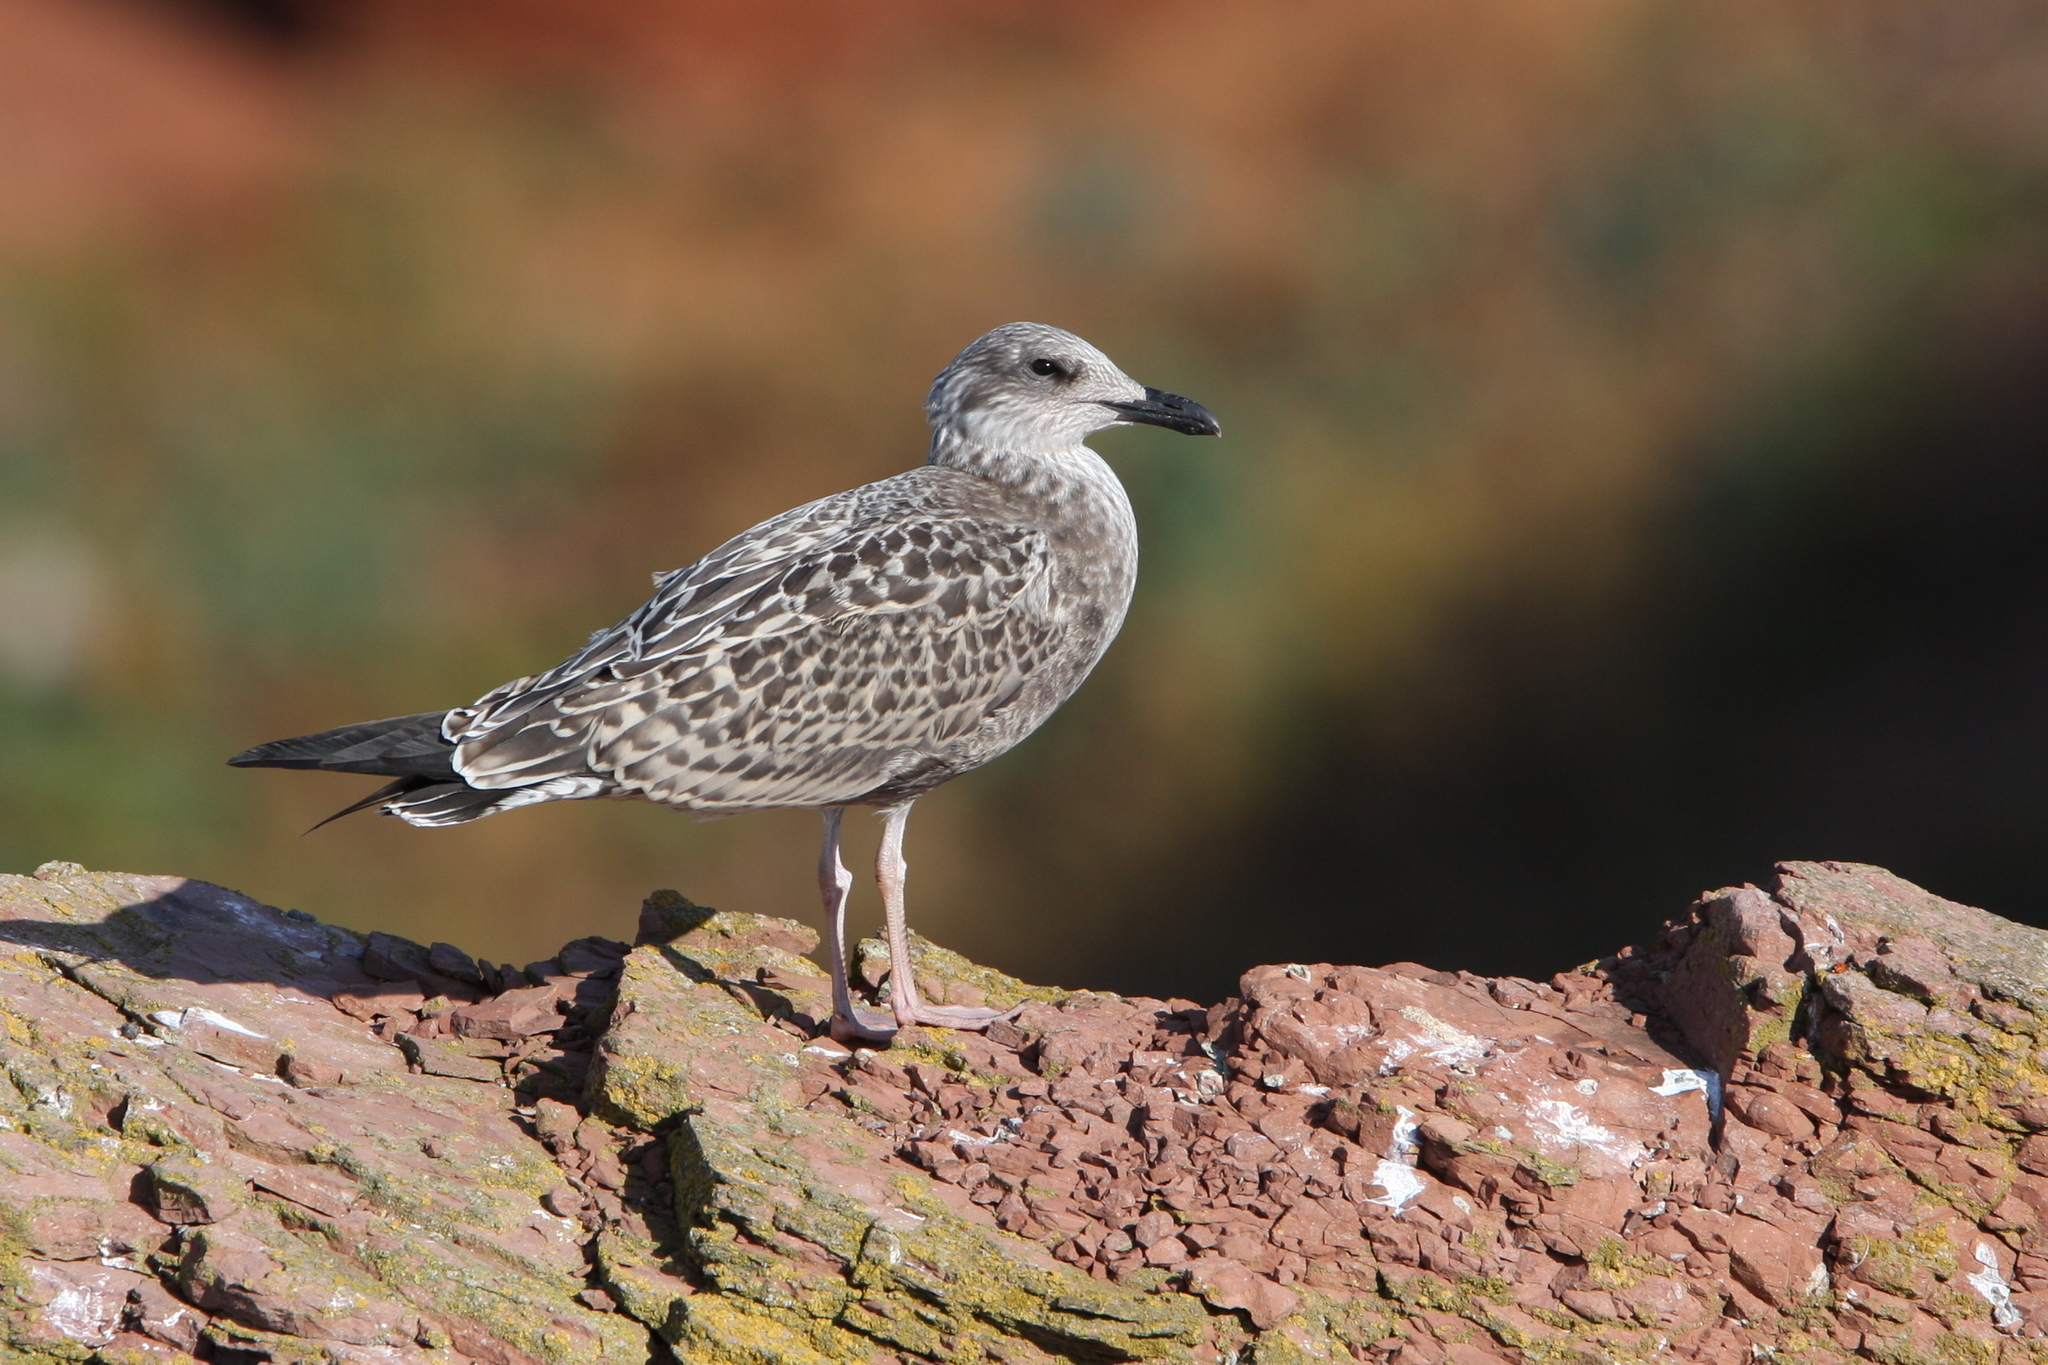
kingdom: Animalia
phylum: Chordata
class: Aves
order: Charadriiformes
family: Laridae
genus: Larus
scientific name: Larus argentatus
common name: Herring gull
